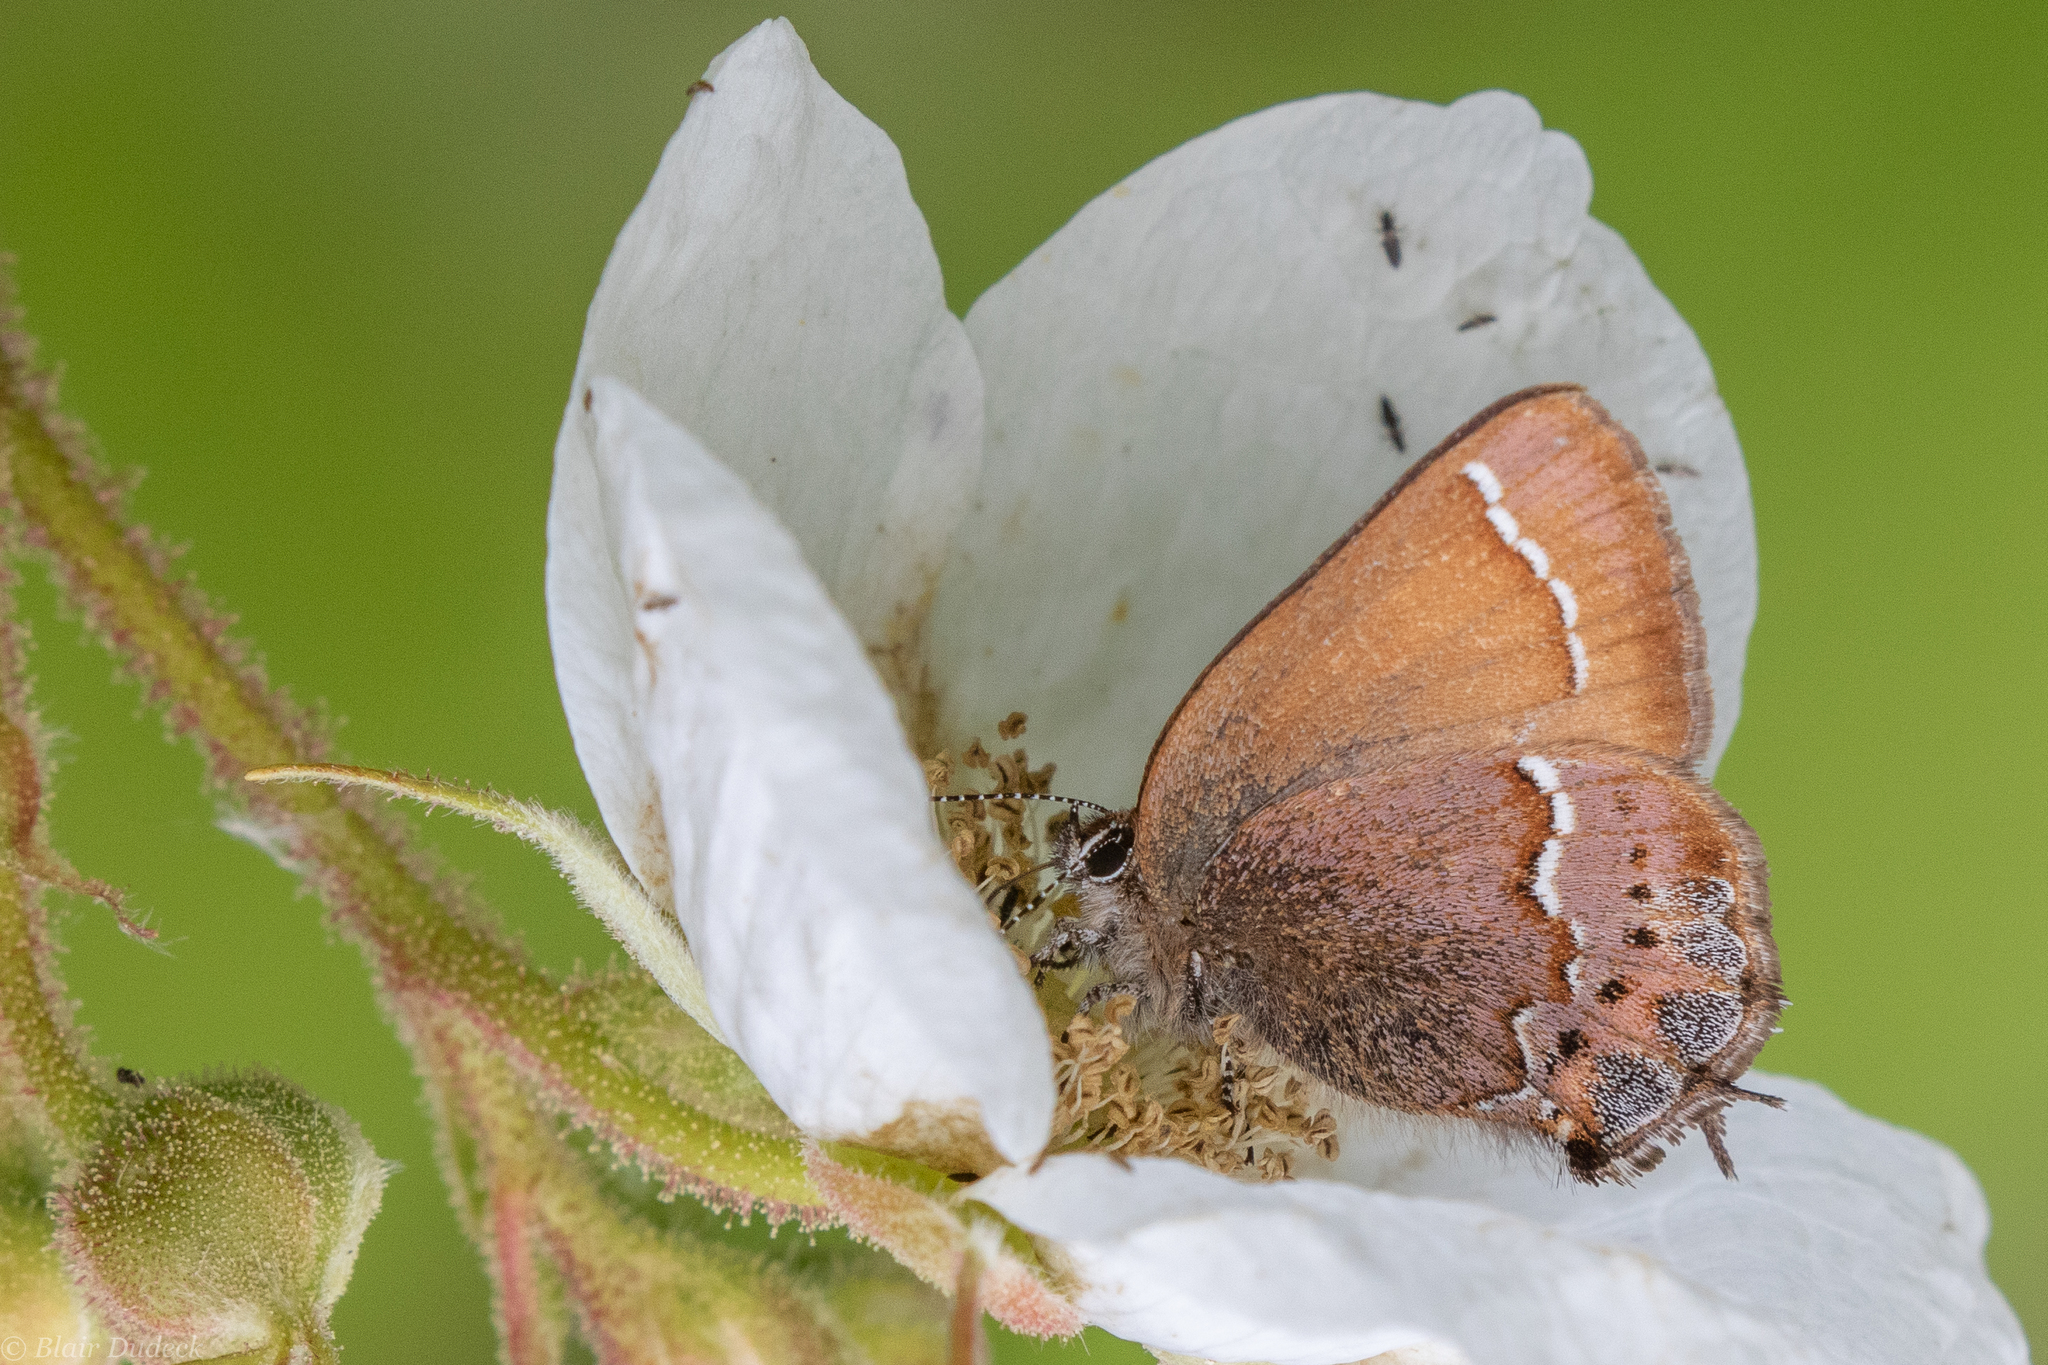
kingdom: Animalia
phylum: Arthropoda
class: Insecta
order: Lepidoptera
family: Lycaenidae
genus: Mitoura
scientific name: Mitoura gryneus
